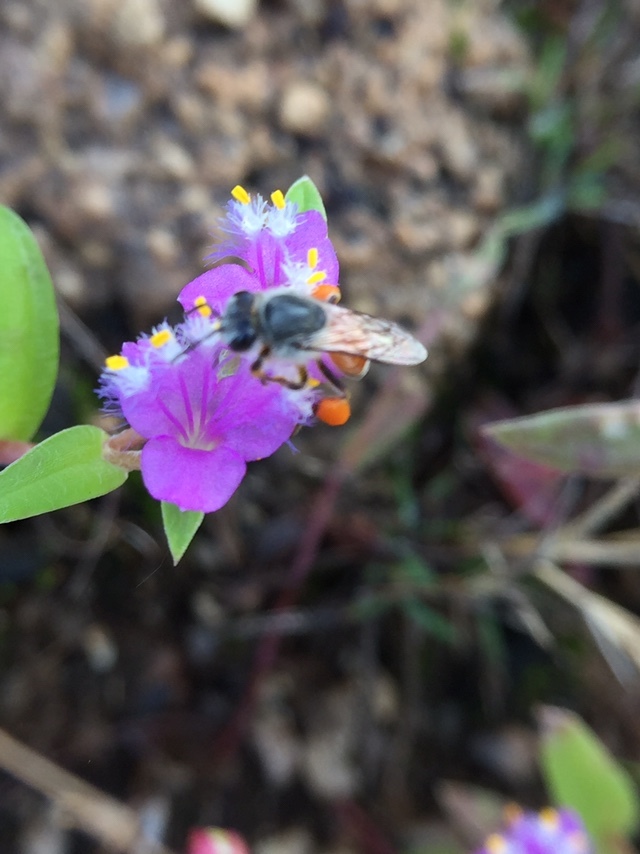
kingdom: Animalia
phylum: Arthropoda
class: Insecta
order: Hymenoptera
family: Apidae
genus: Apis
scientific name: Apis florea
